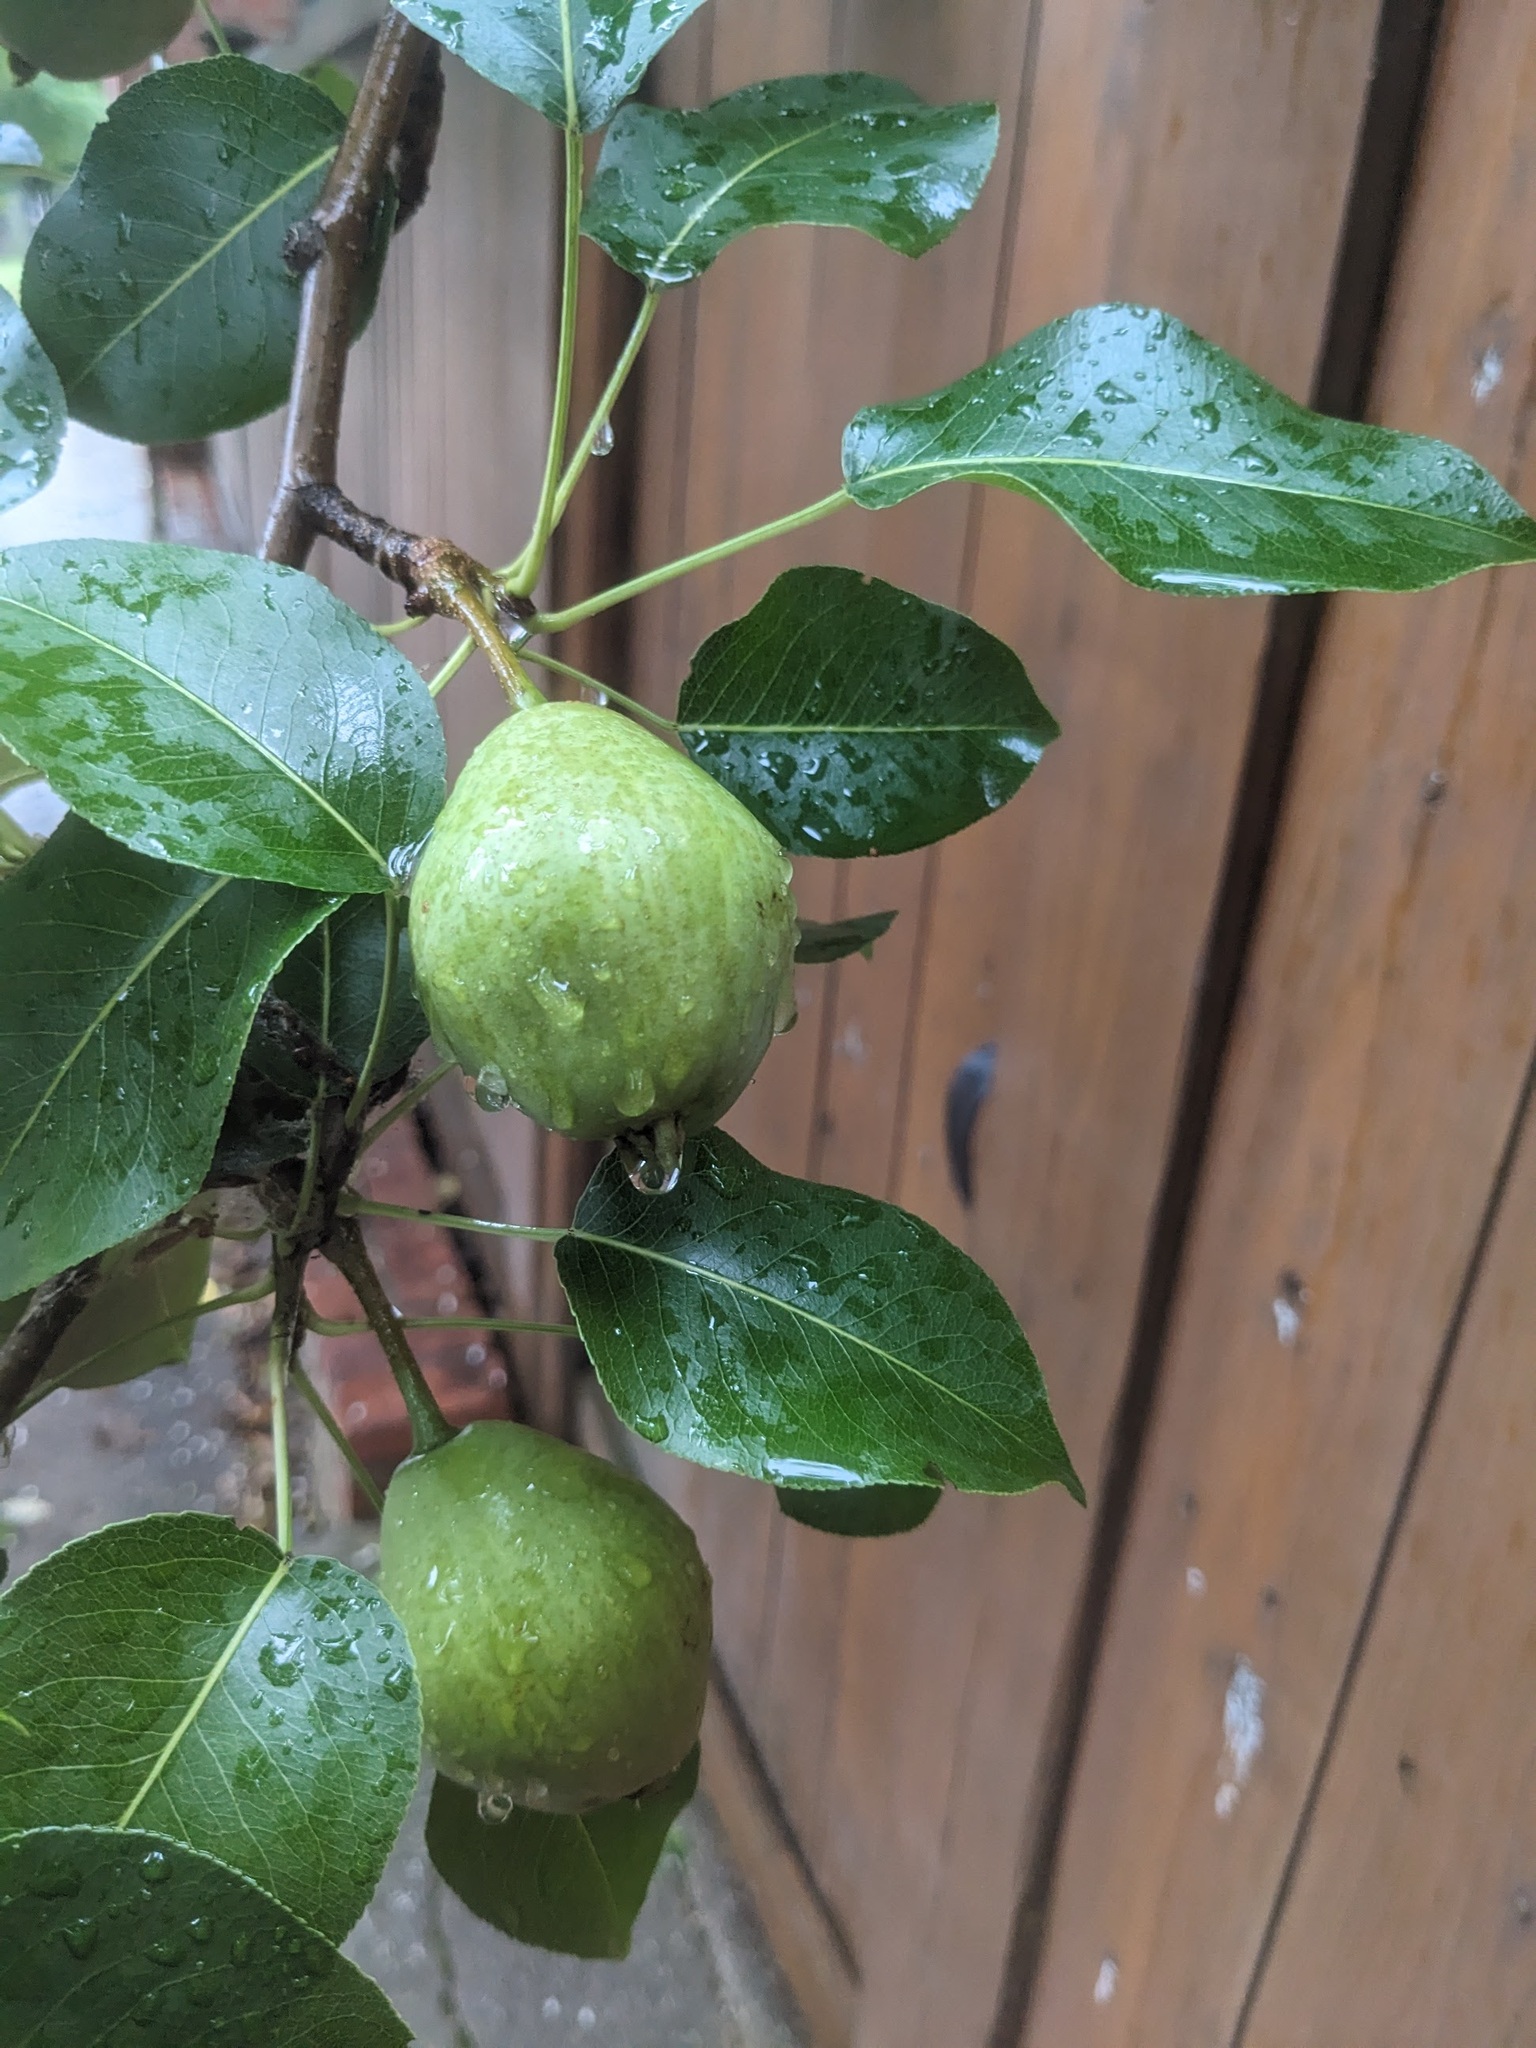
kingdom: Plantae
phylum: Tracheophyta
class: Magnoliopsida
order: Rosales
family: Rosaceae
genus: Pyrus
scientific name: Pyrus communis
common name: Pear
